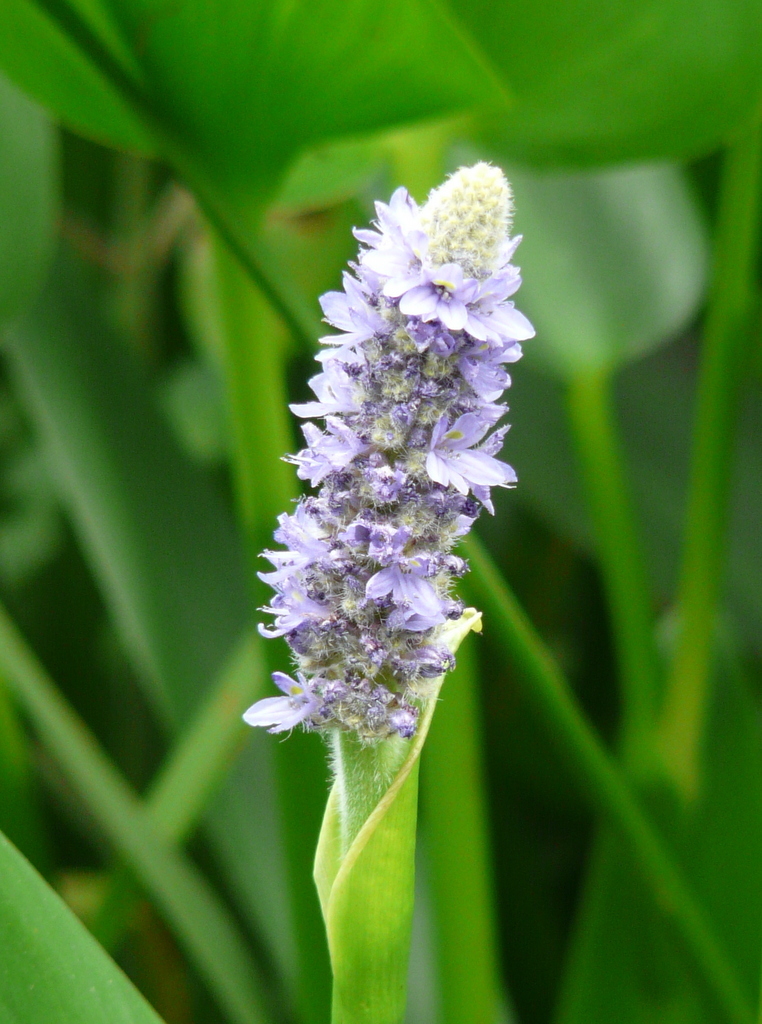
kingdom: Plantae
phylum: Tracheophyta
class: Liliopsida
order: Commelinales
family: Pontederiaceae
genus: Pontederia
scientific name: Pontederia cordata
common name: Pickerelweed
